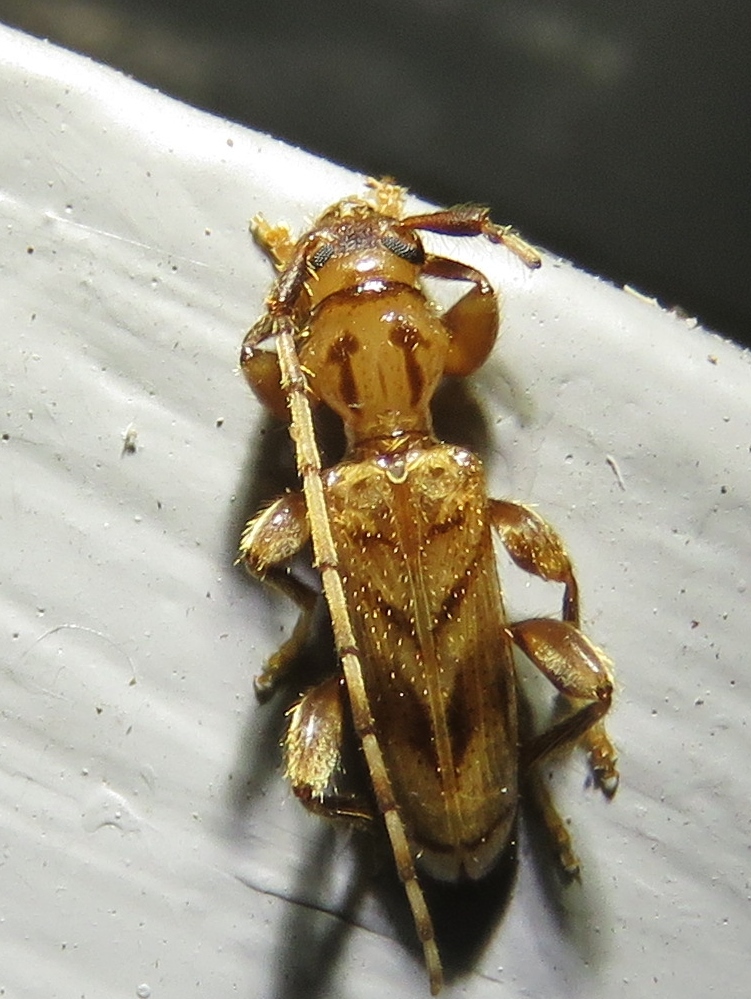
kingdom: Animalia
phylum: Arthropoda
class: Insecta
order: Coleoptera
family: Cerambycidae
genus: Obrium
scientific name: Obrium maculatum
